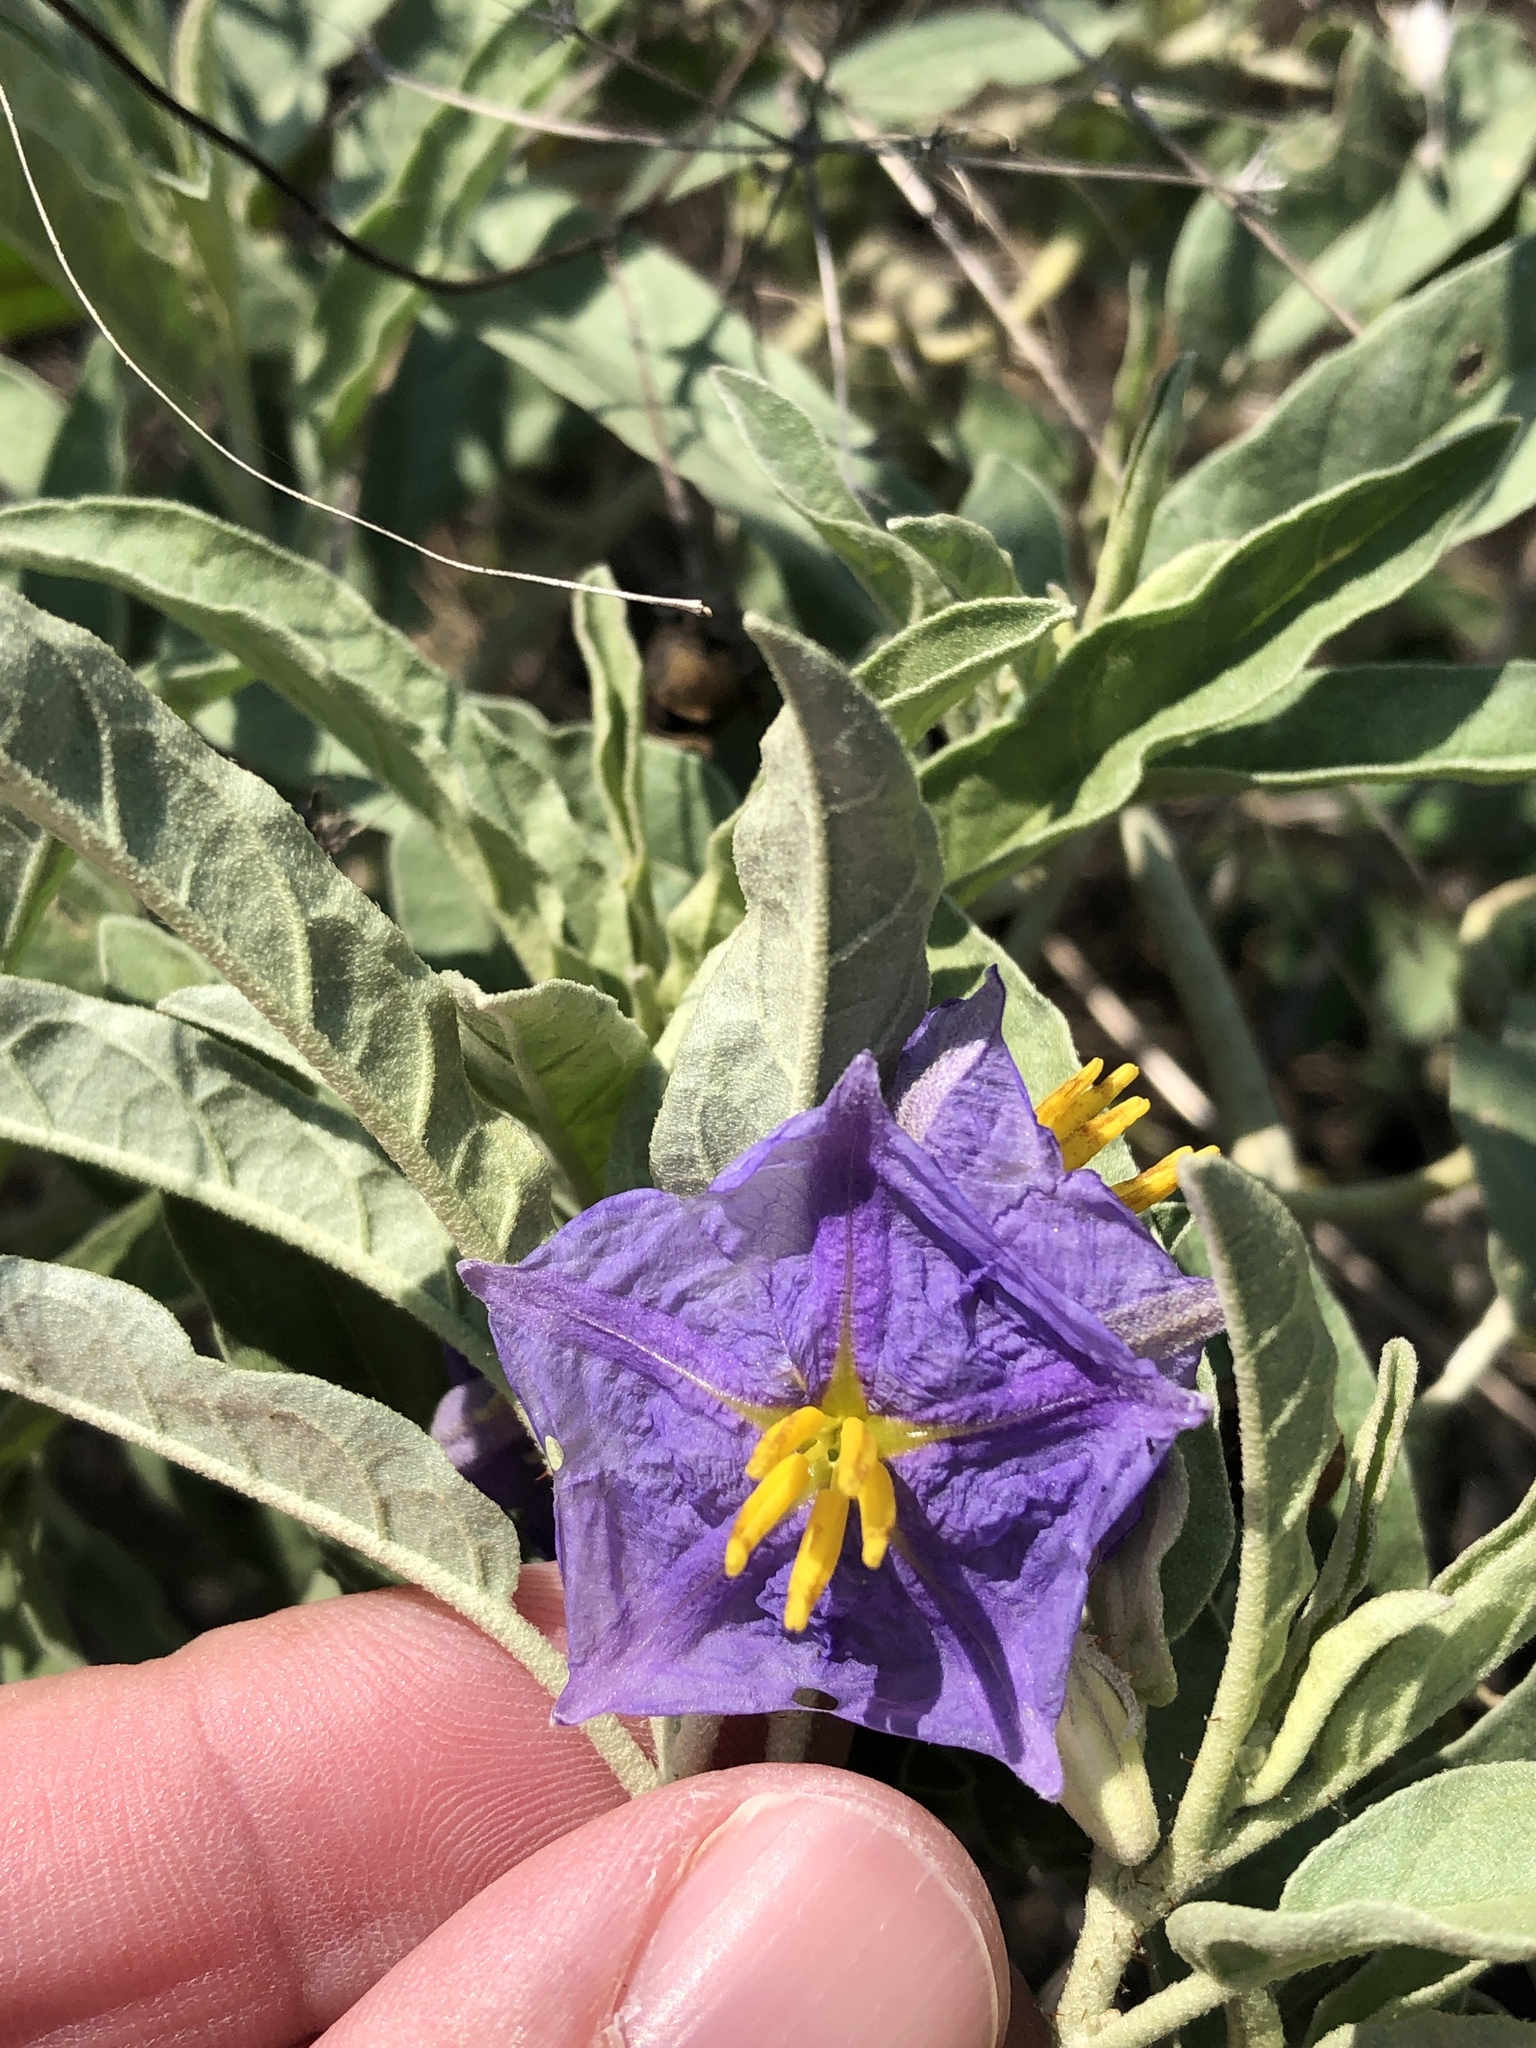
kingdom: Plantae
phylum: Tracheophyta
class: Magnoliopsida
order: Solanales
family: Solanaceae
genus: Solanum
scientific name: Solanum elaeagnifolium
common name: Silverleaf nightshade
